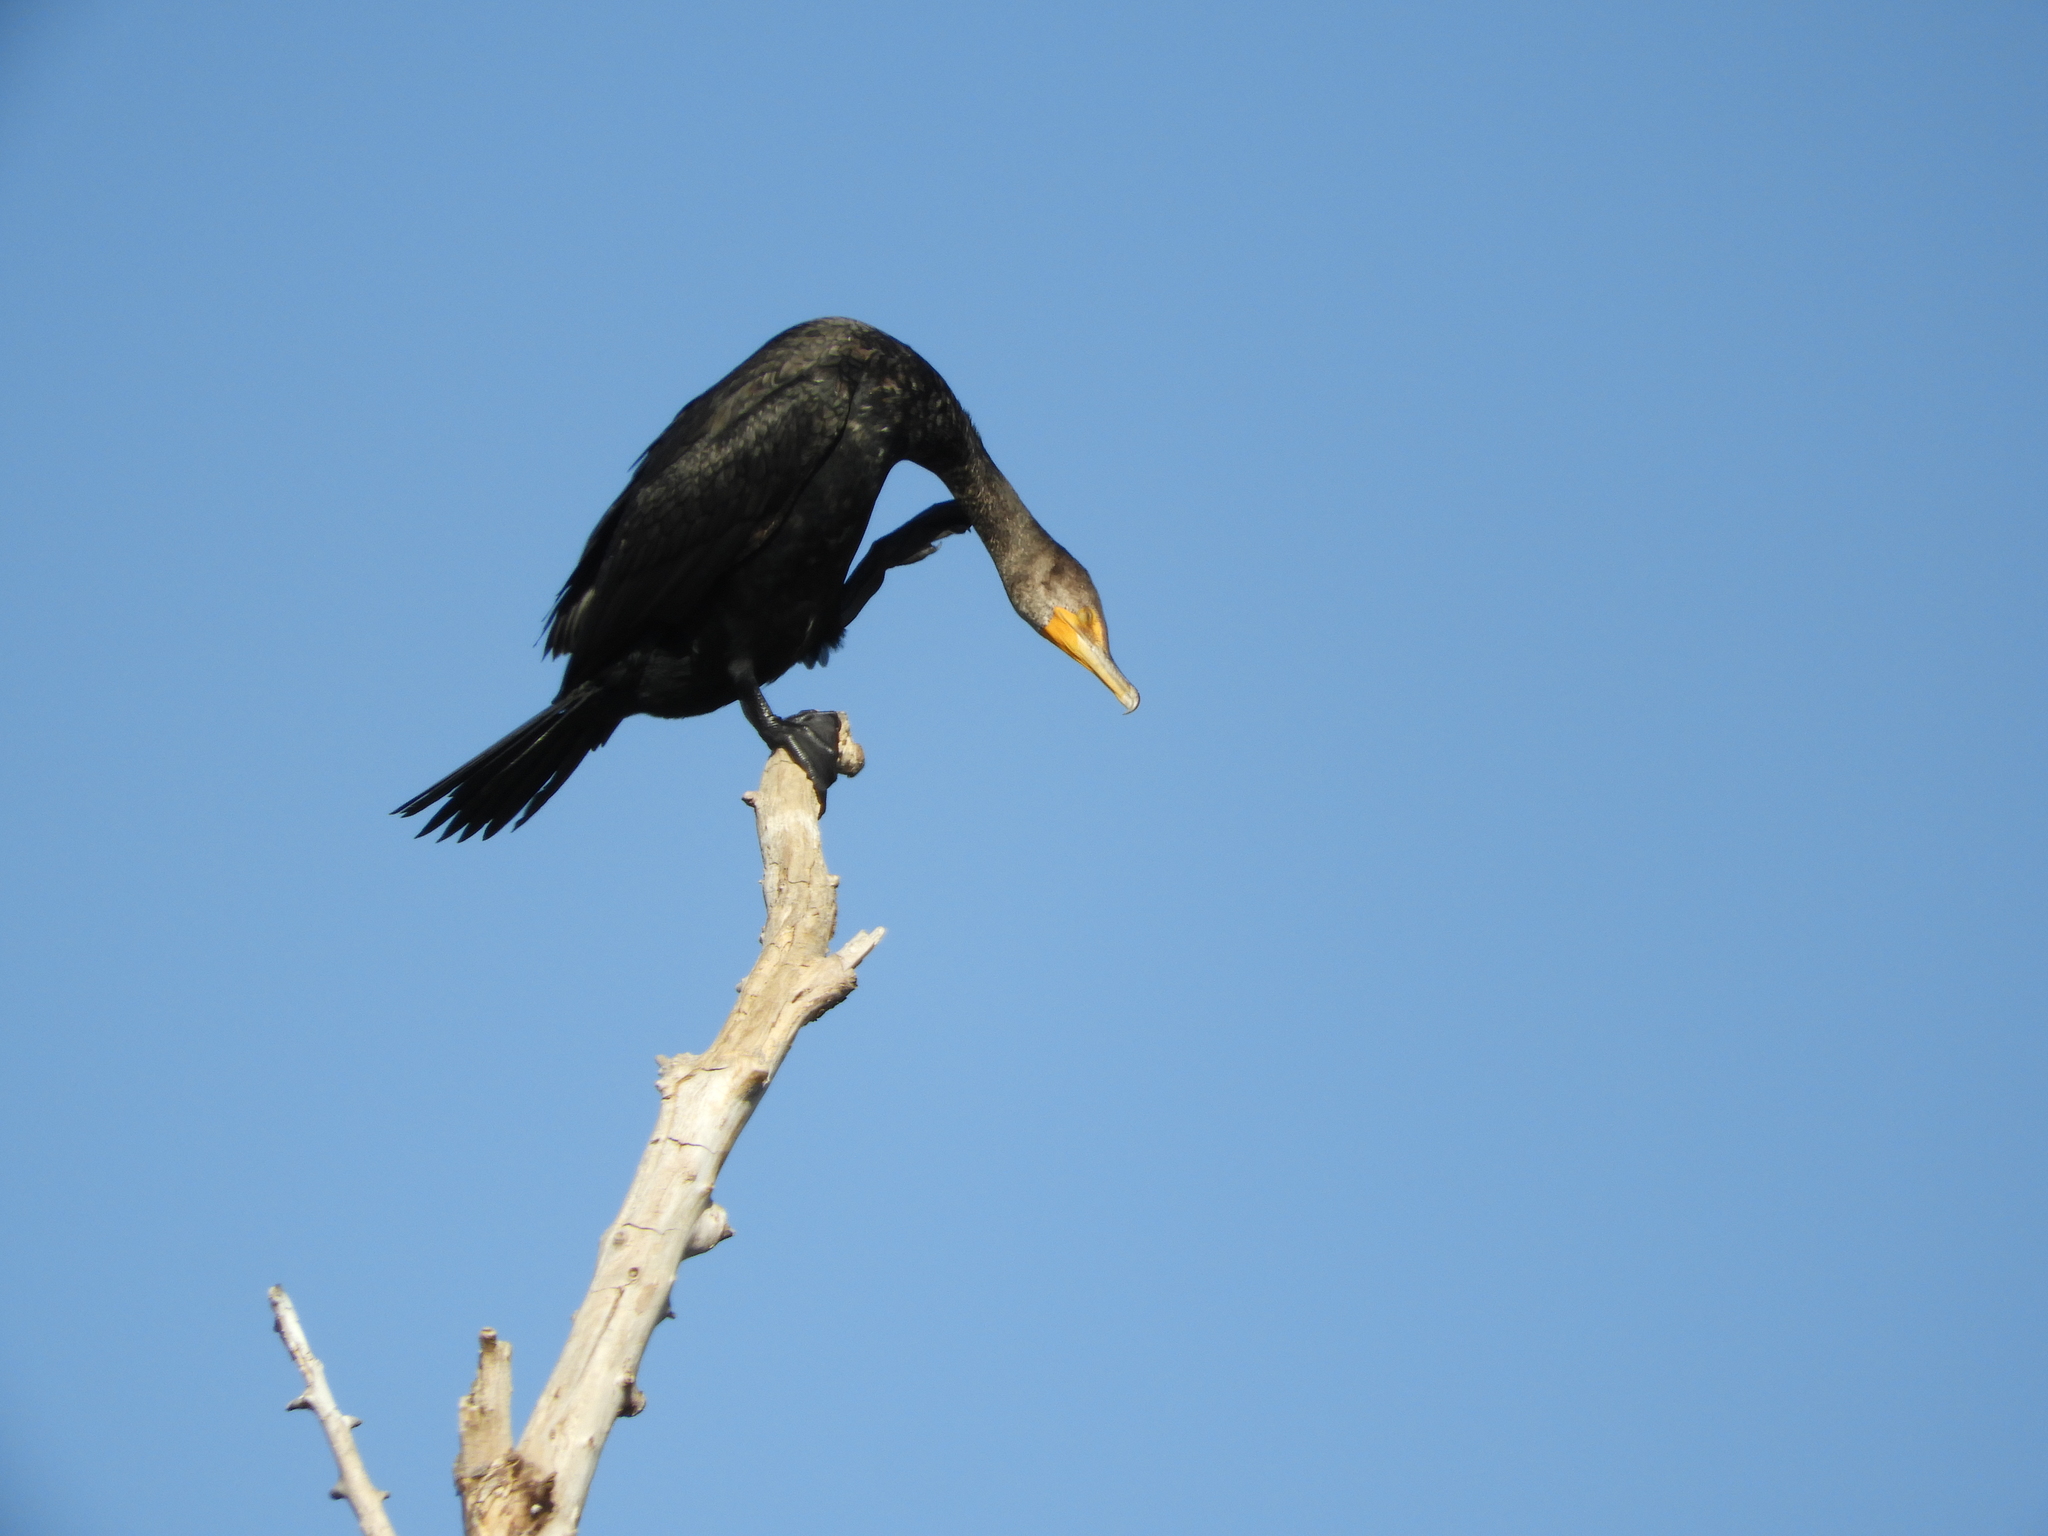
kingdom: Animalia
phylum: Chordata
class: Aves
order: Suliformes
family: Phalacrocoracidae
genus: Phalacrocorax
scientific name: Phalacrocorax auritus
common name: Double-crested cormorant
